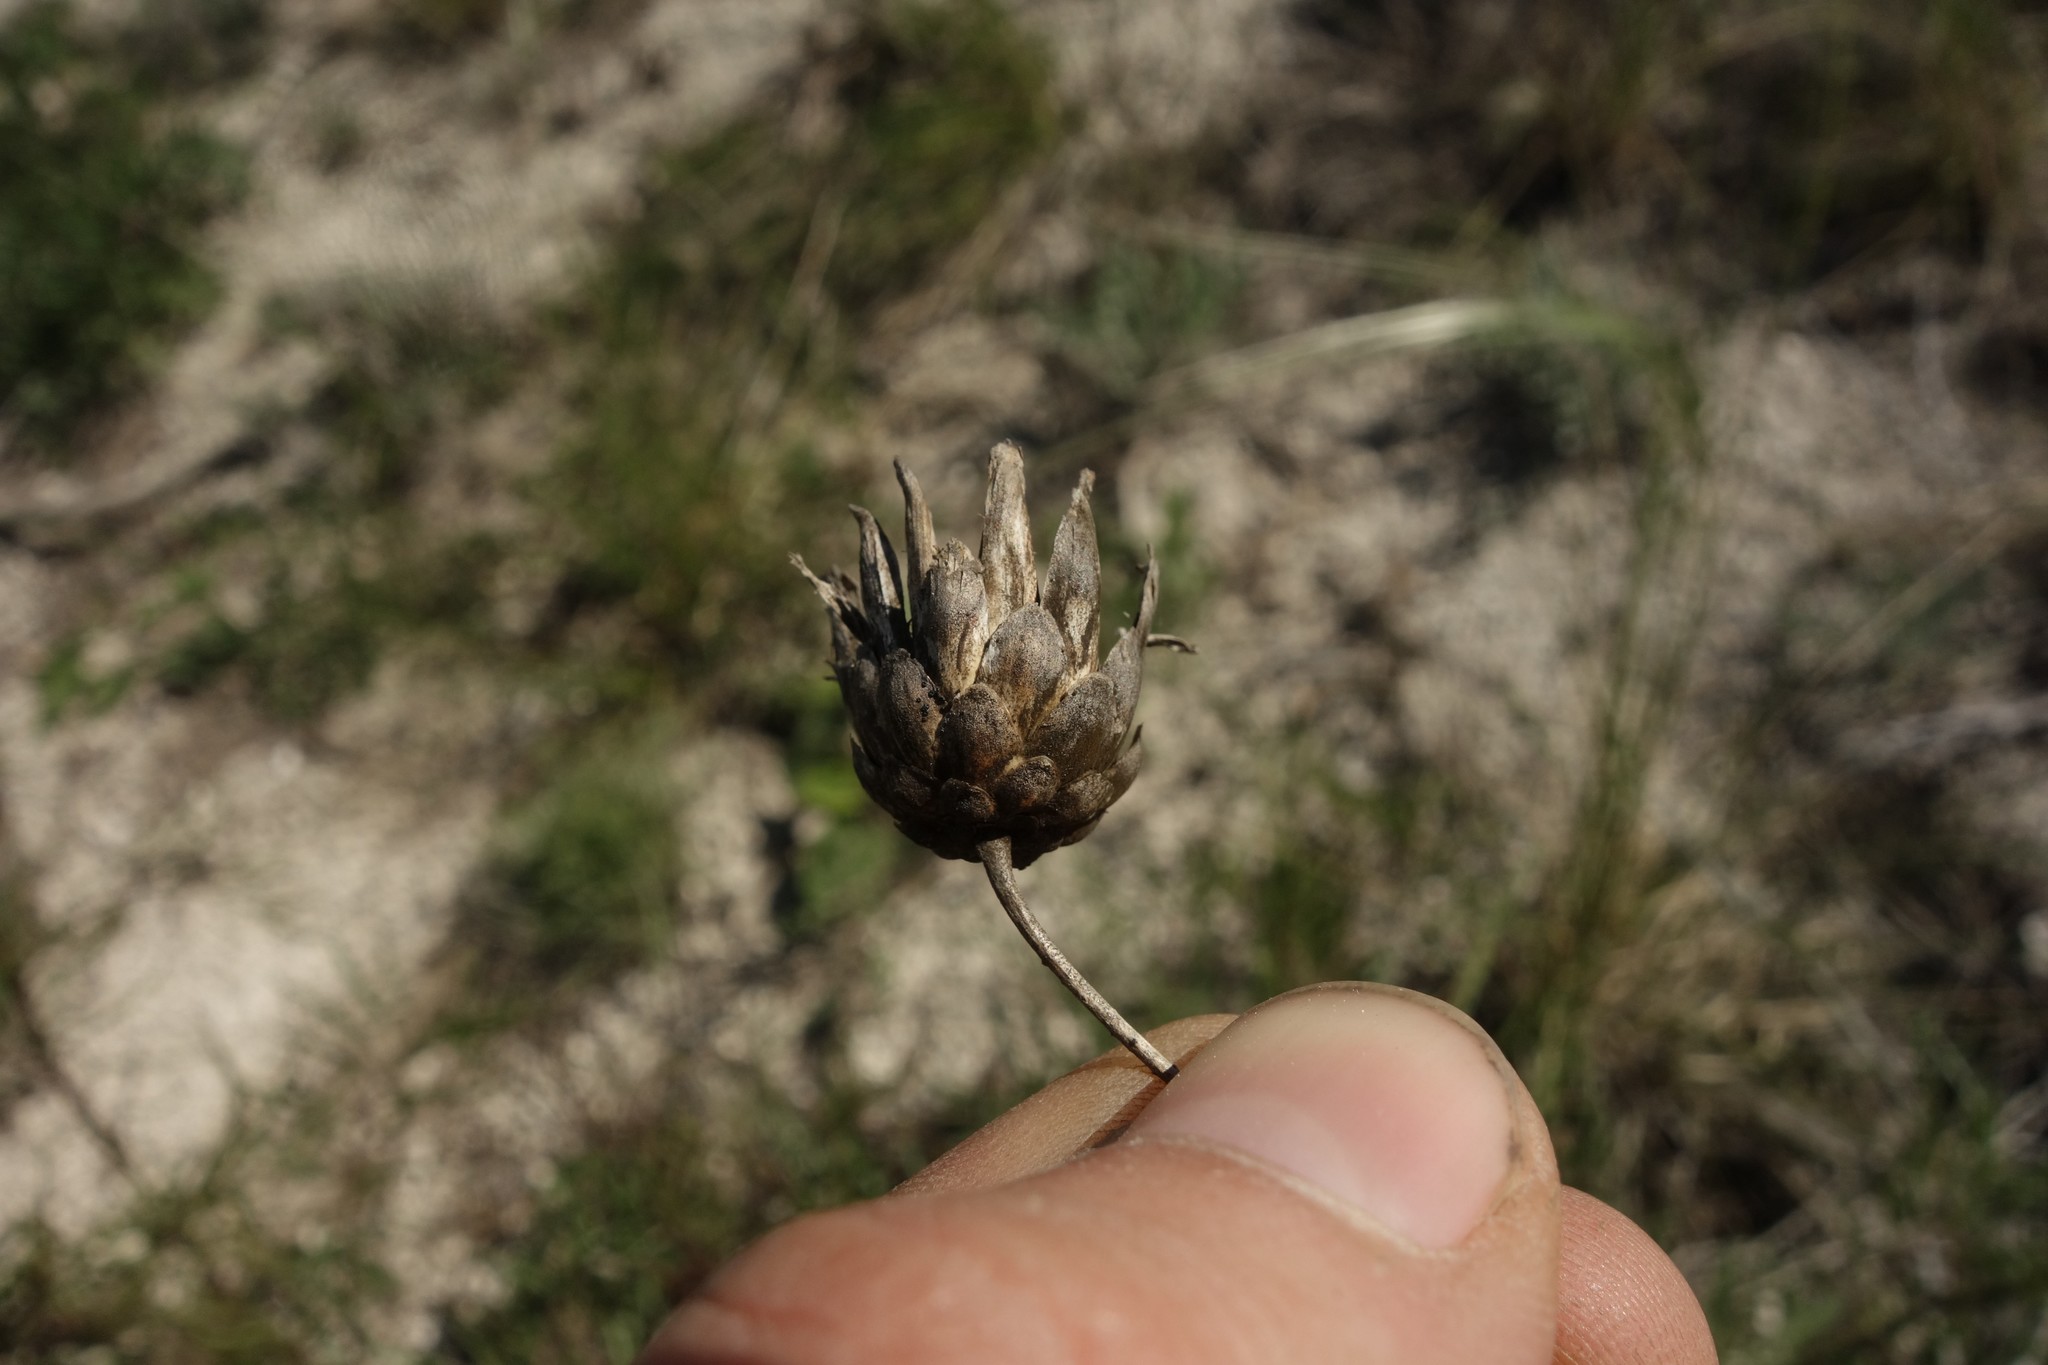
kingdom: Plantae
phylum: Tracheophyta
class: Magnoliopsida
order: Asterales
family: Asteraceae
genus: Rhaponticoides
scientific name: Rhaponticoides ruthenica
